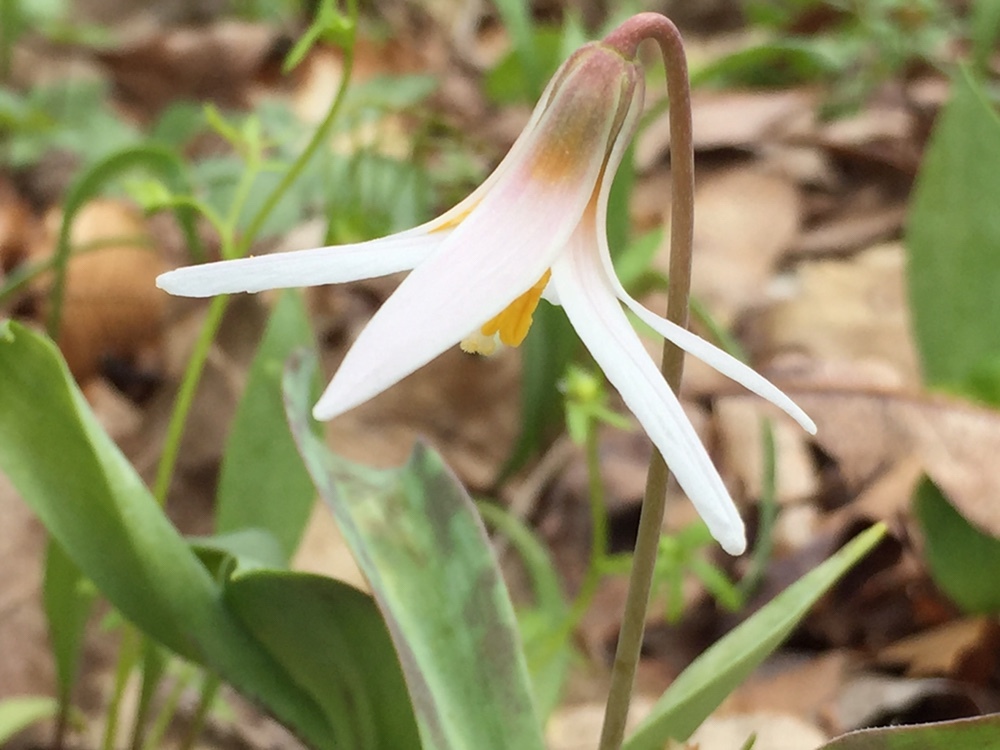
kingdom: Plantae
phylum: Tracheophyta
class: Liliopsida
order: Liliales
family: Liliaceae
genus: Erythronium
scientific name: Erythronium albidum
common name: White trout-lily
